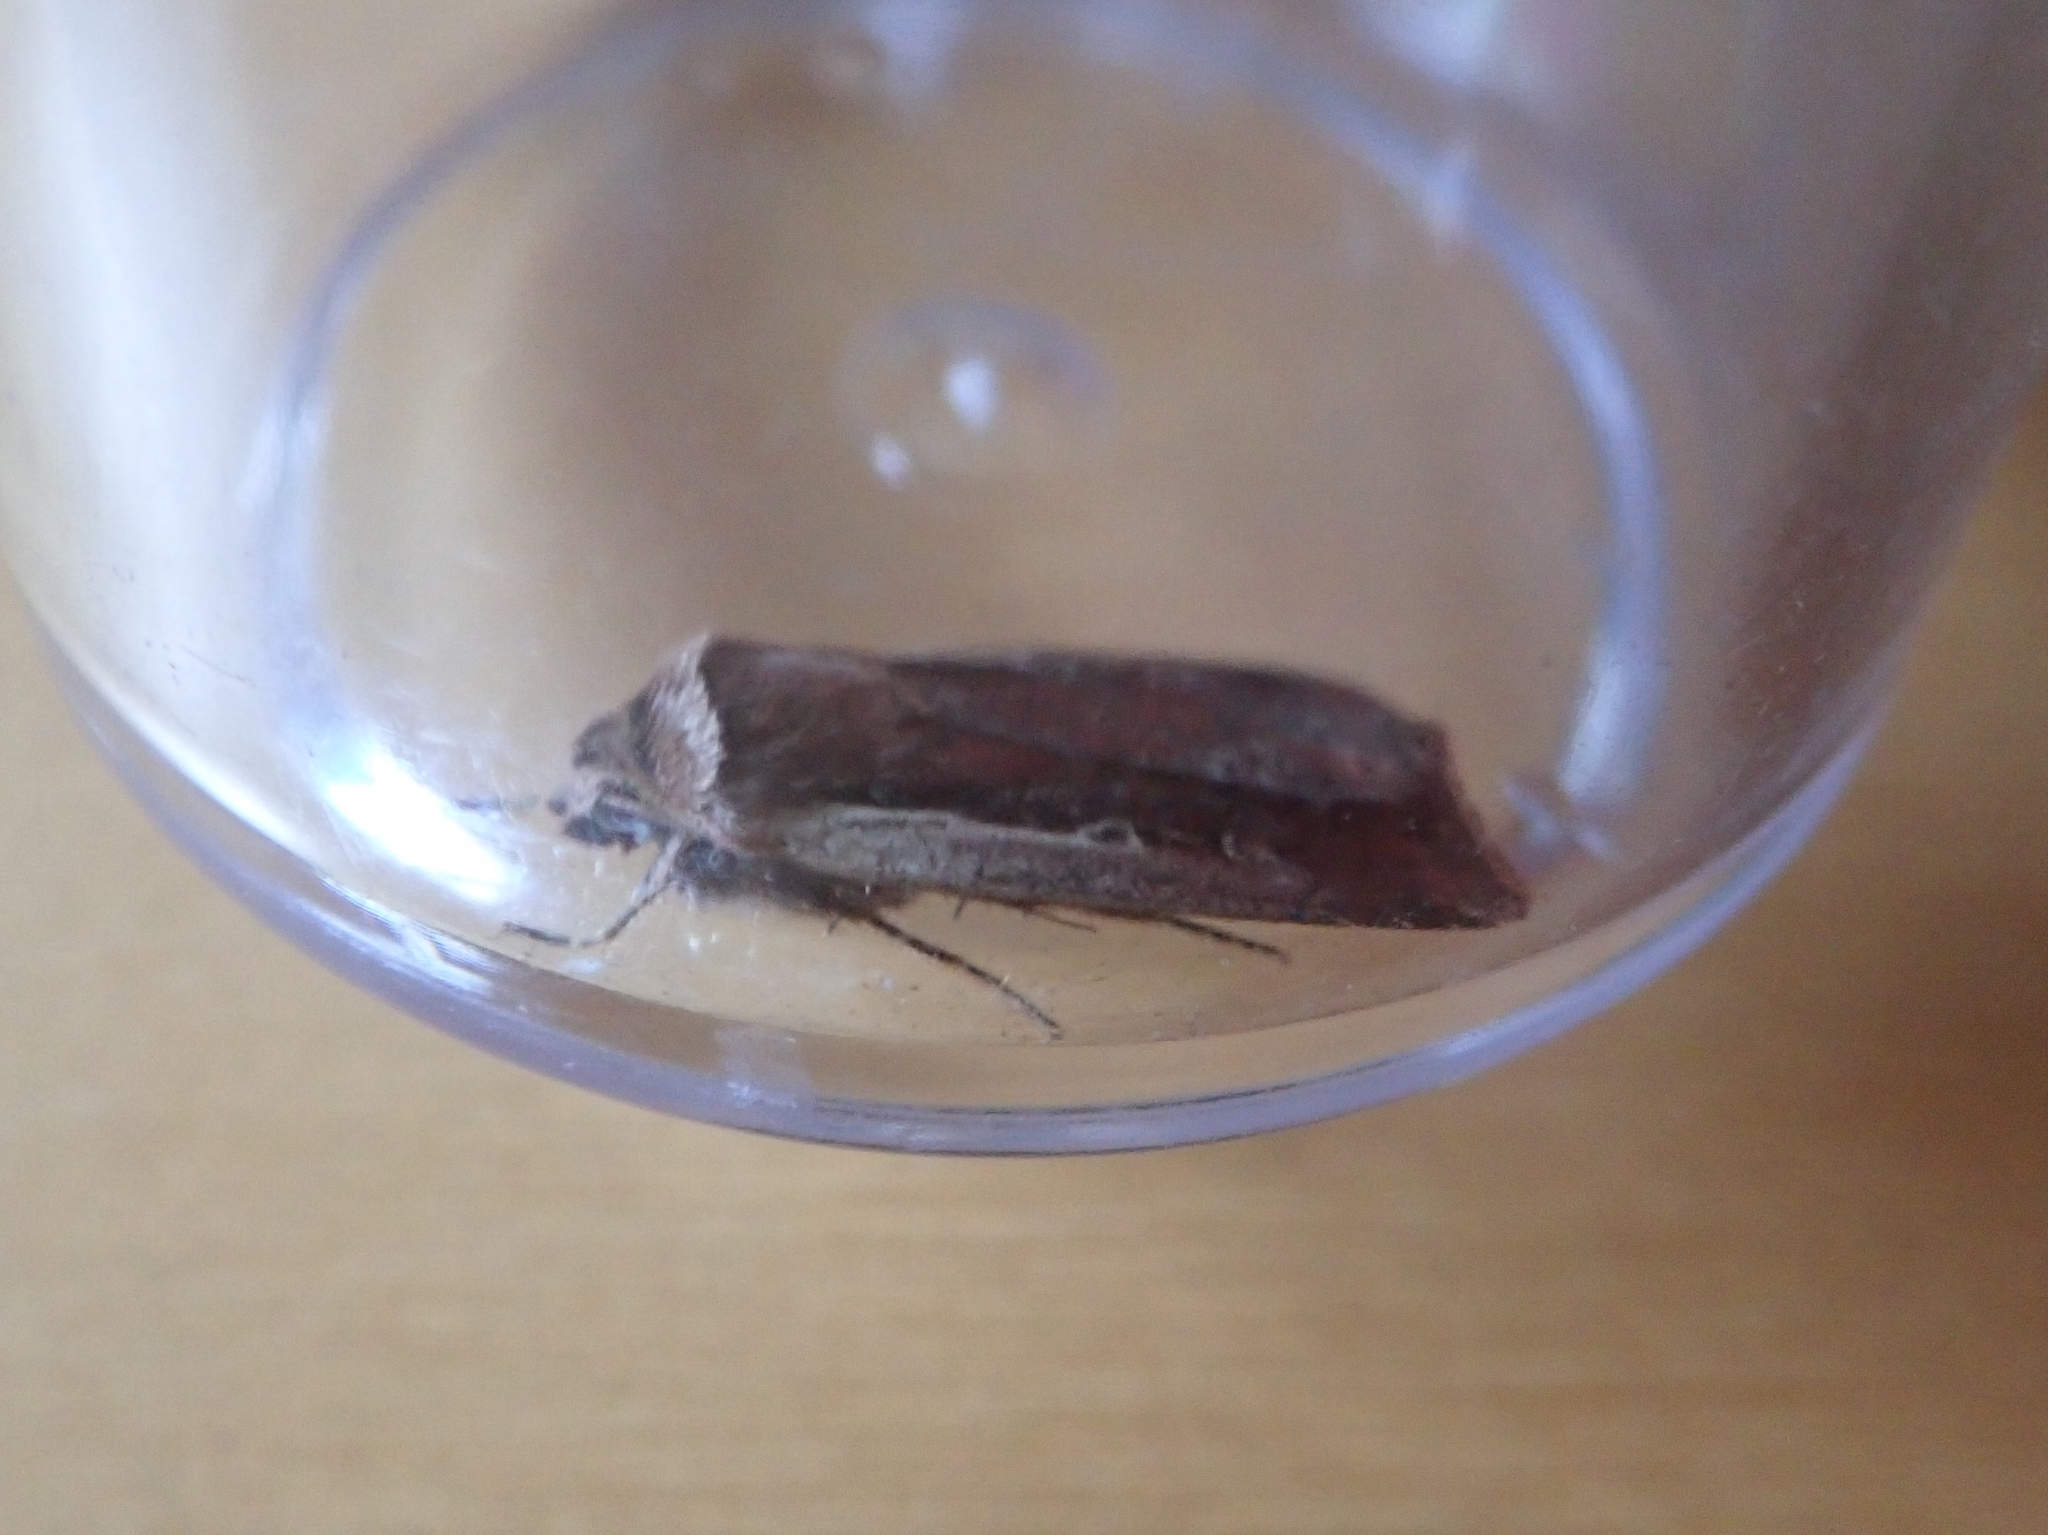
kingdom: Animalia
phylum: Arthropoda
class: Insecta
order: Lepidoptera
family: Noctuidae
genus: Ochropleura
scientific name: Ochropleura plecta
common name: Flame shoulder
